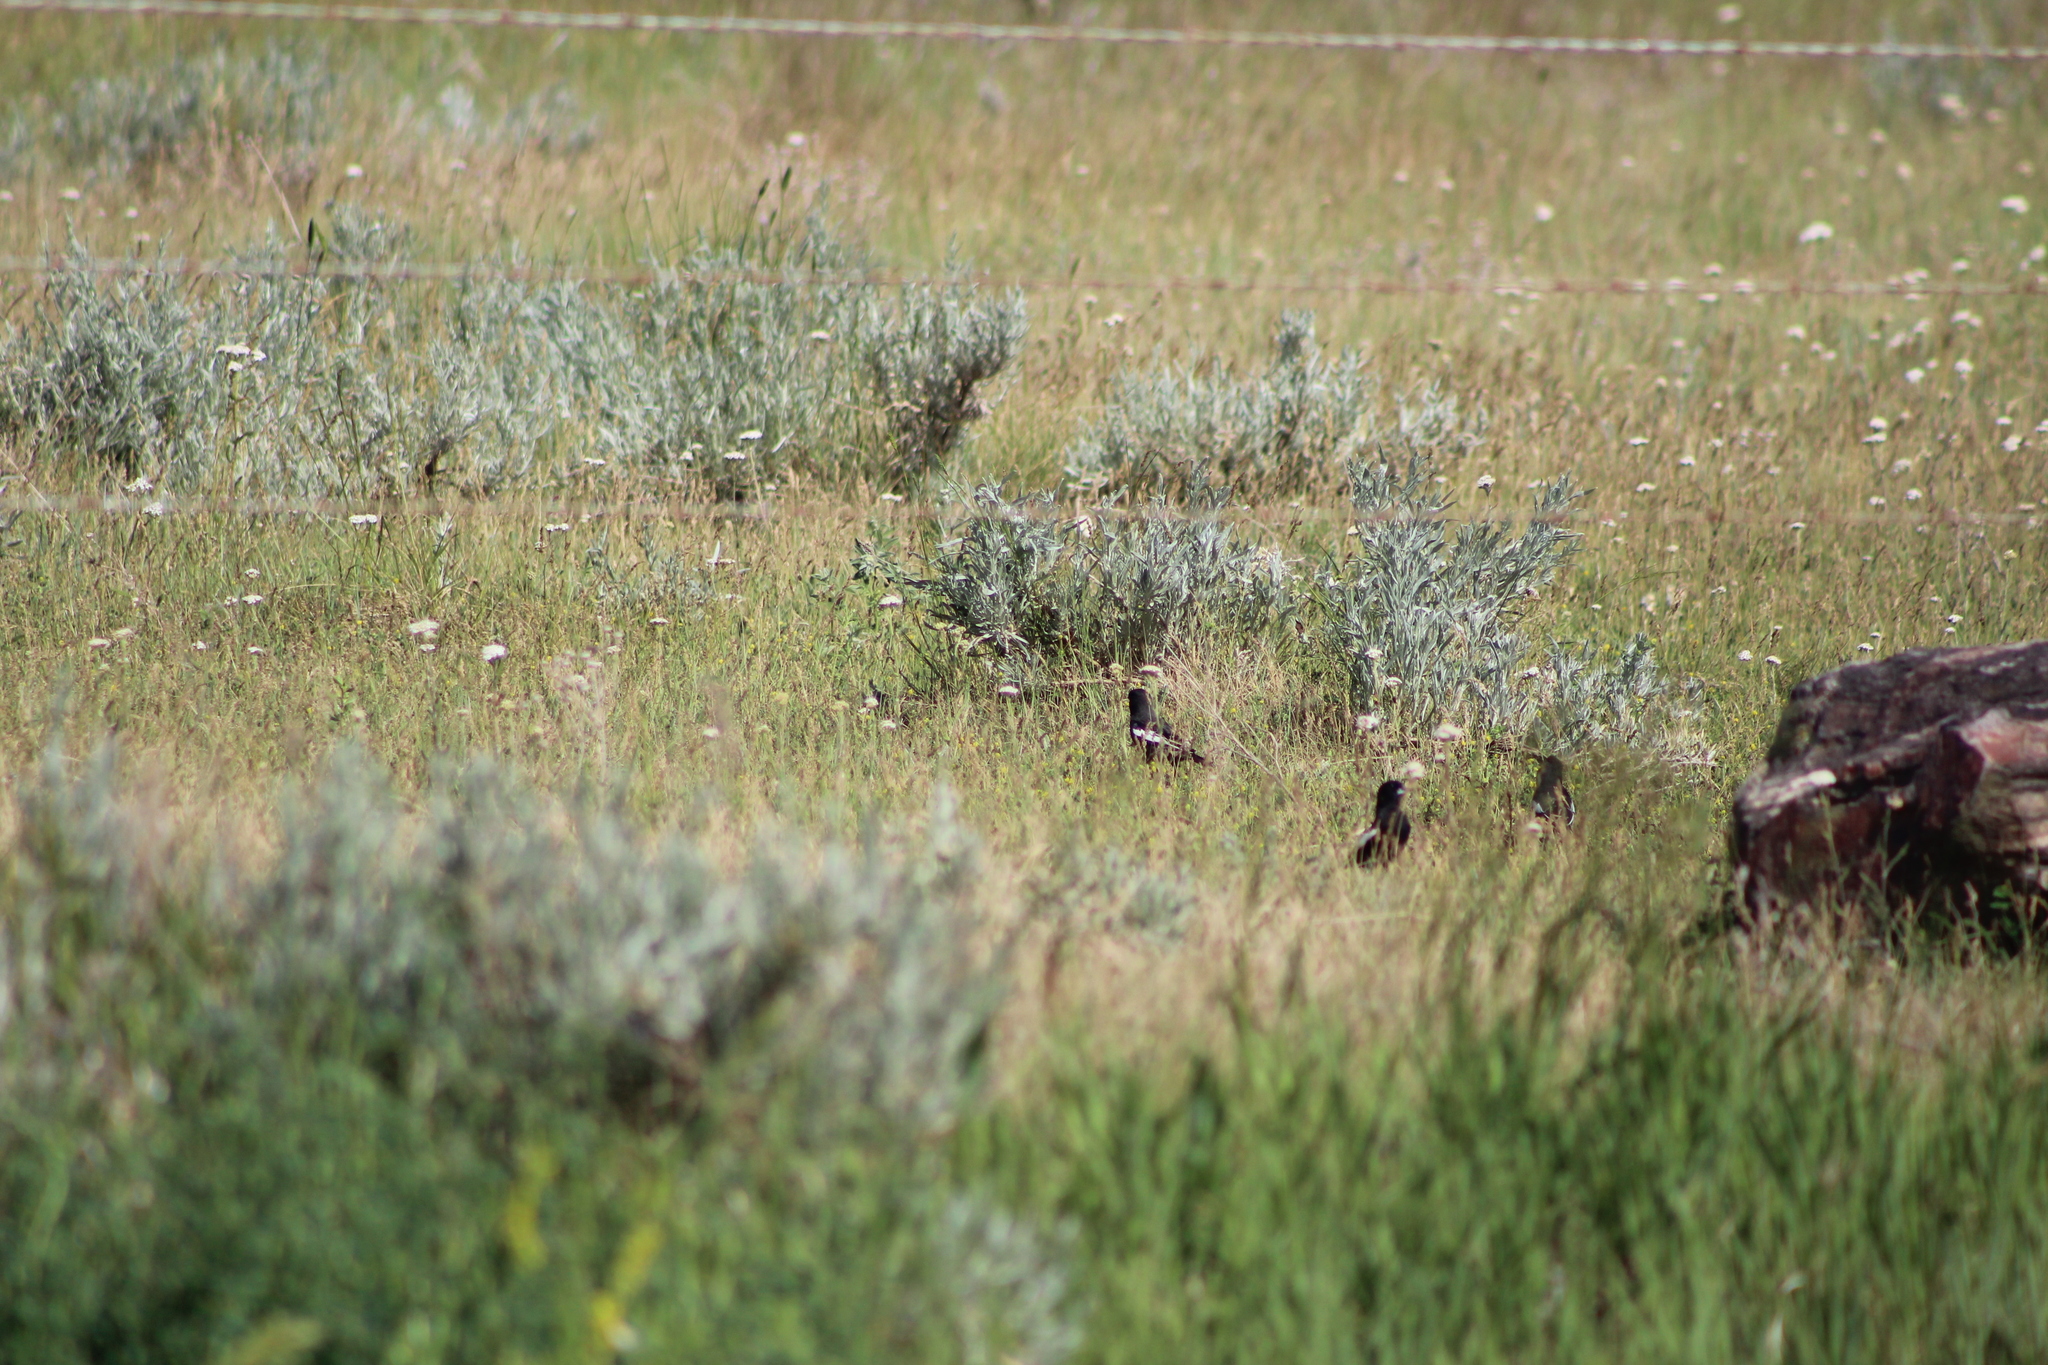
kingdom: Animalia
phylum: Chordata
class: Aves
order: Passeriformes
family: Passerellidae
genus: Calamospiza
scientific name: Calamospiza melanocorys
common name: Lark bunting
